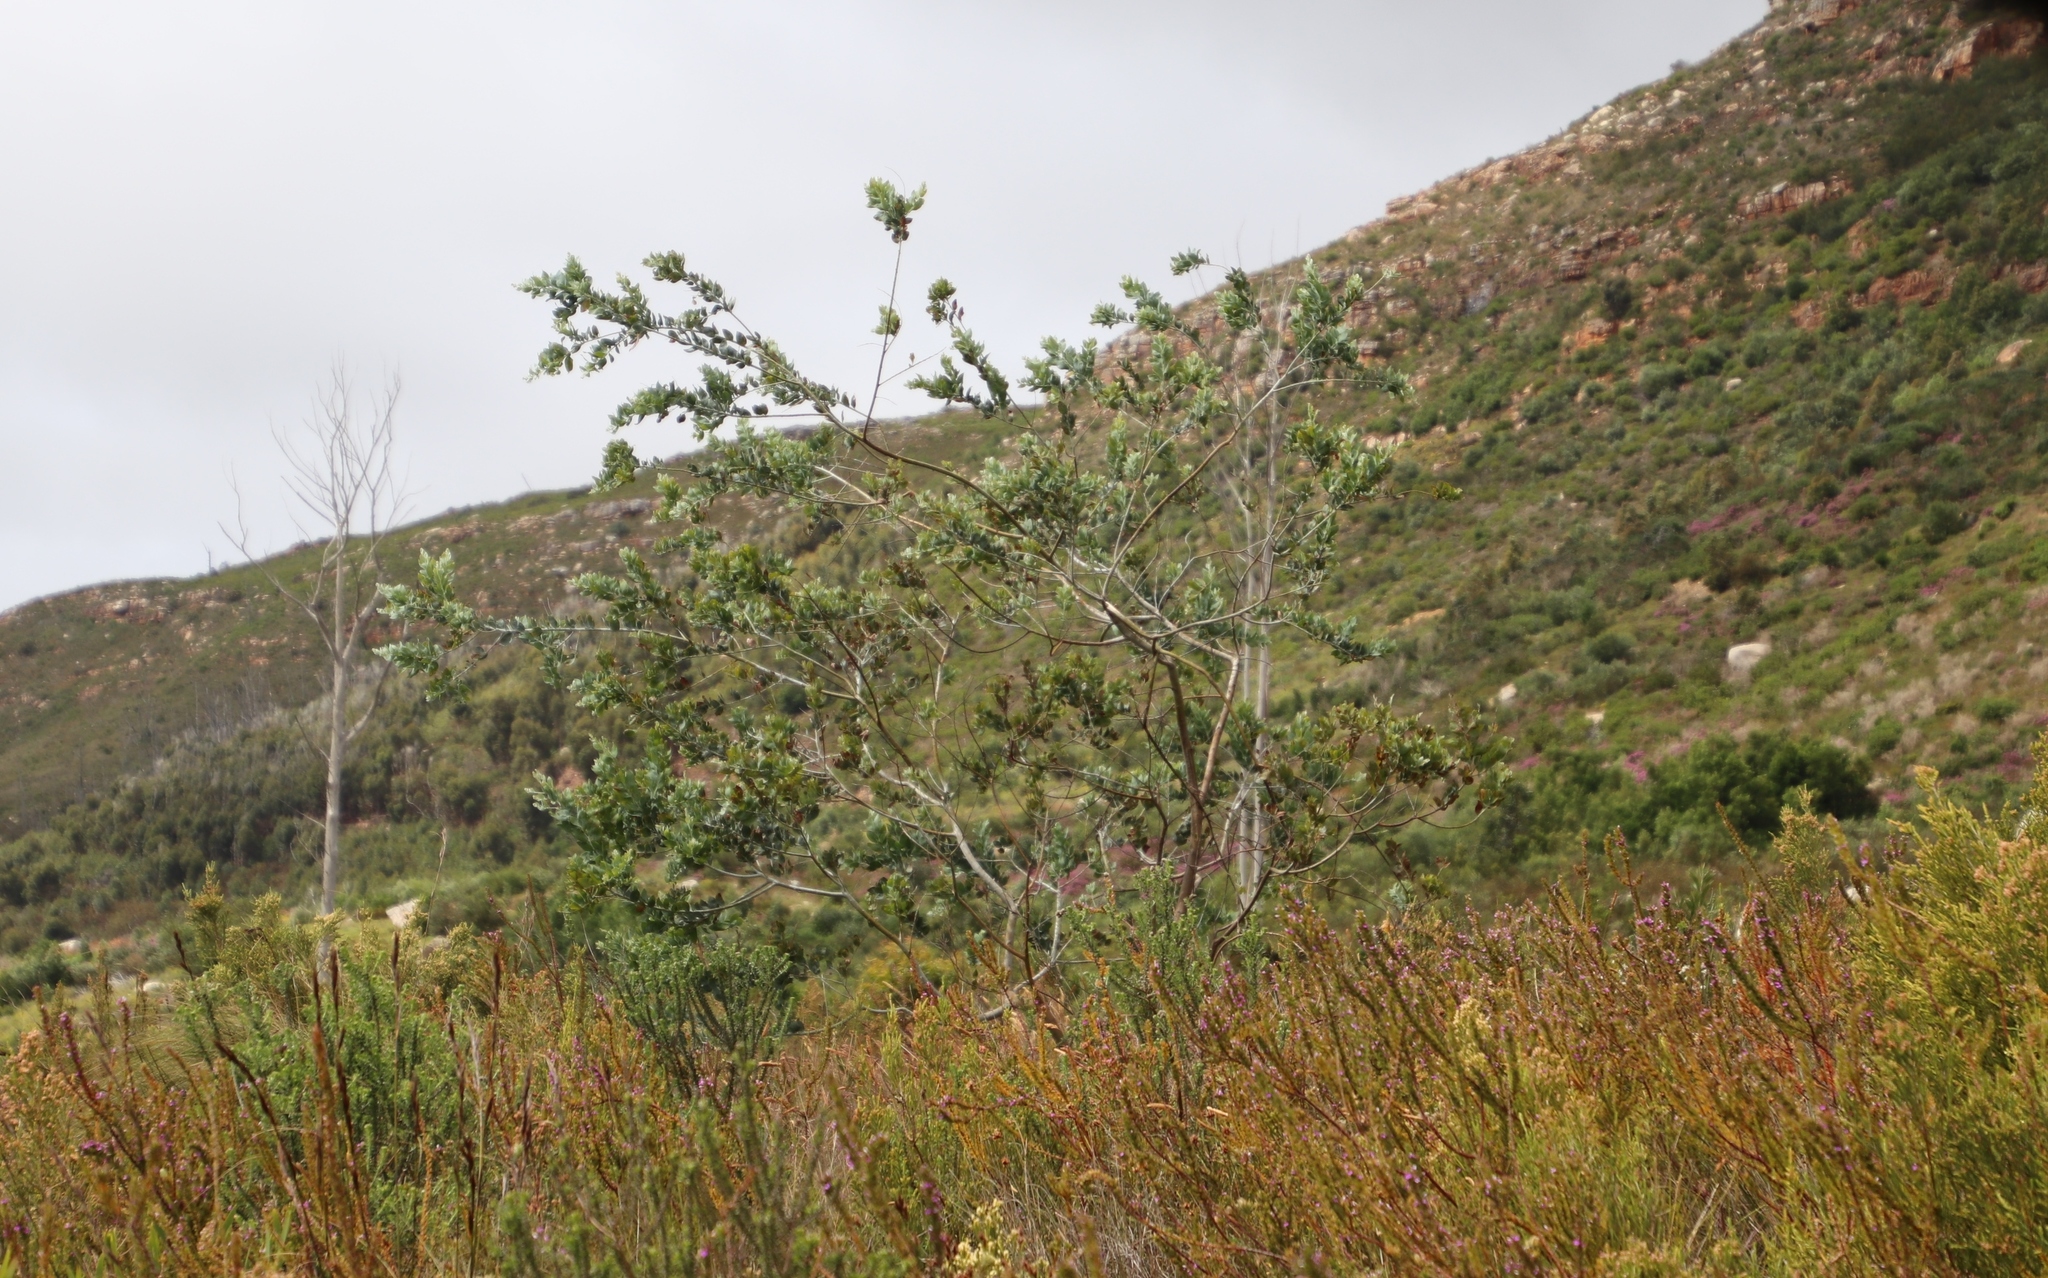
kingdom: Plantae
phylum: Tracheophyta
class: Magnoliopsida
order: Fabales
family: Fabaceae
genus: Acacia
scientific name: Acacia podalyriifolia
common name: Pearl wattle
